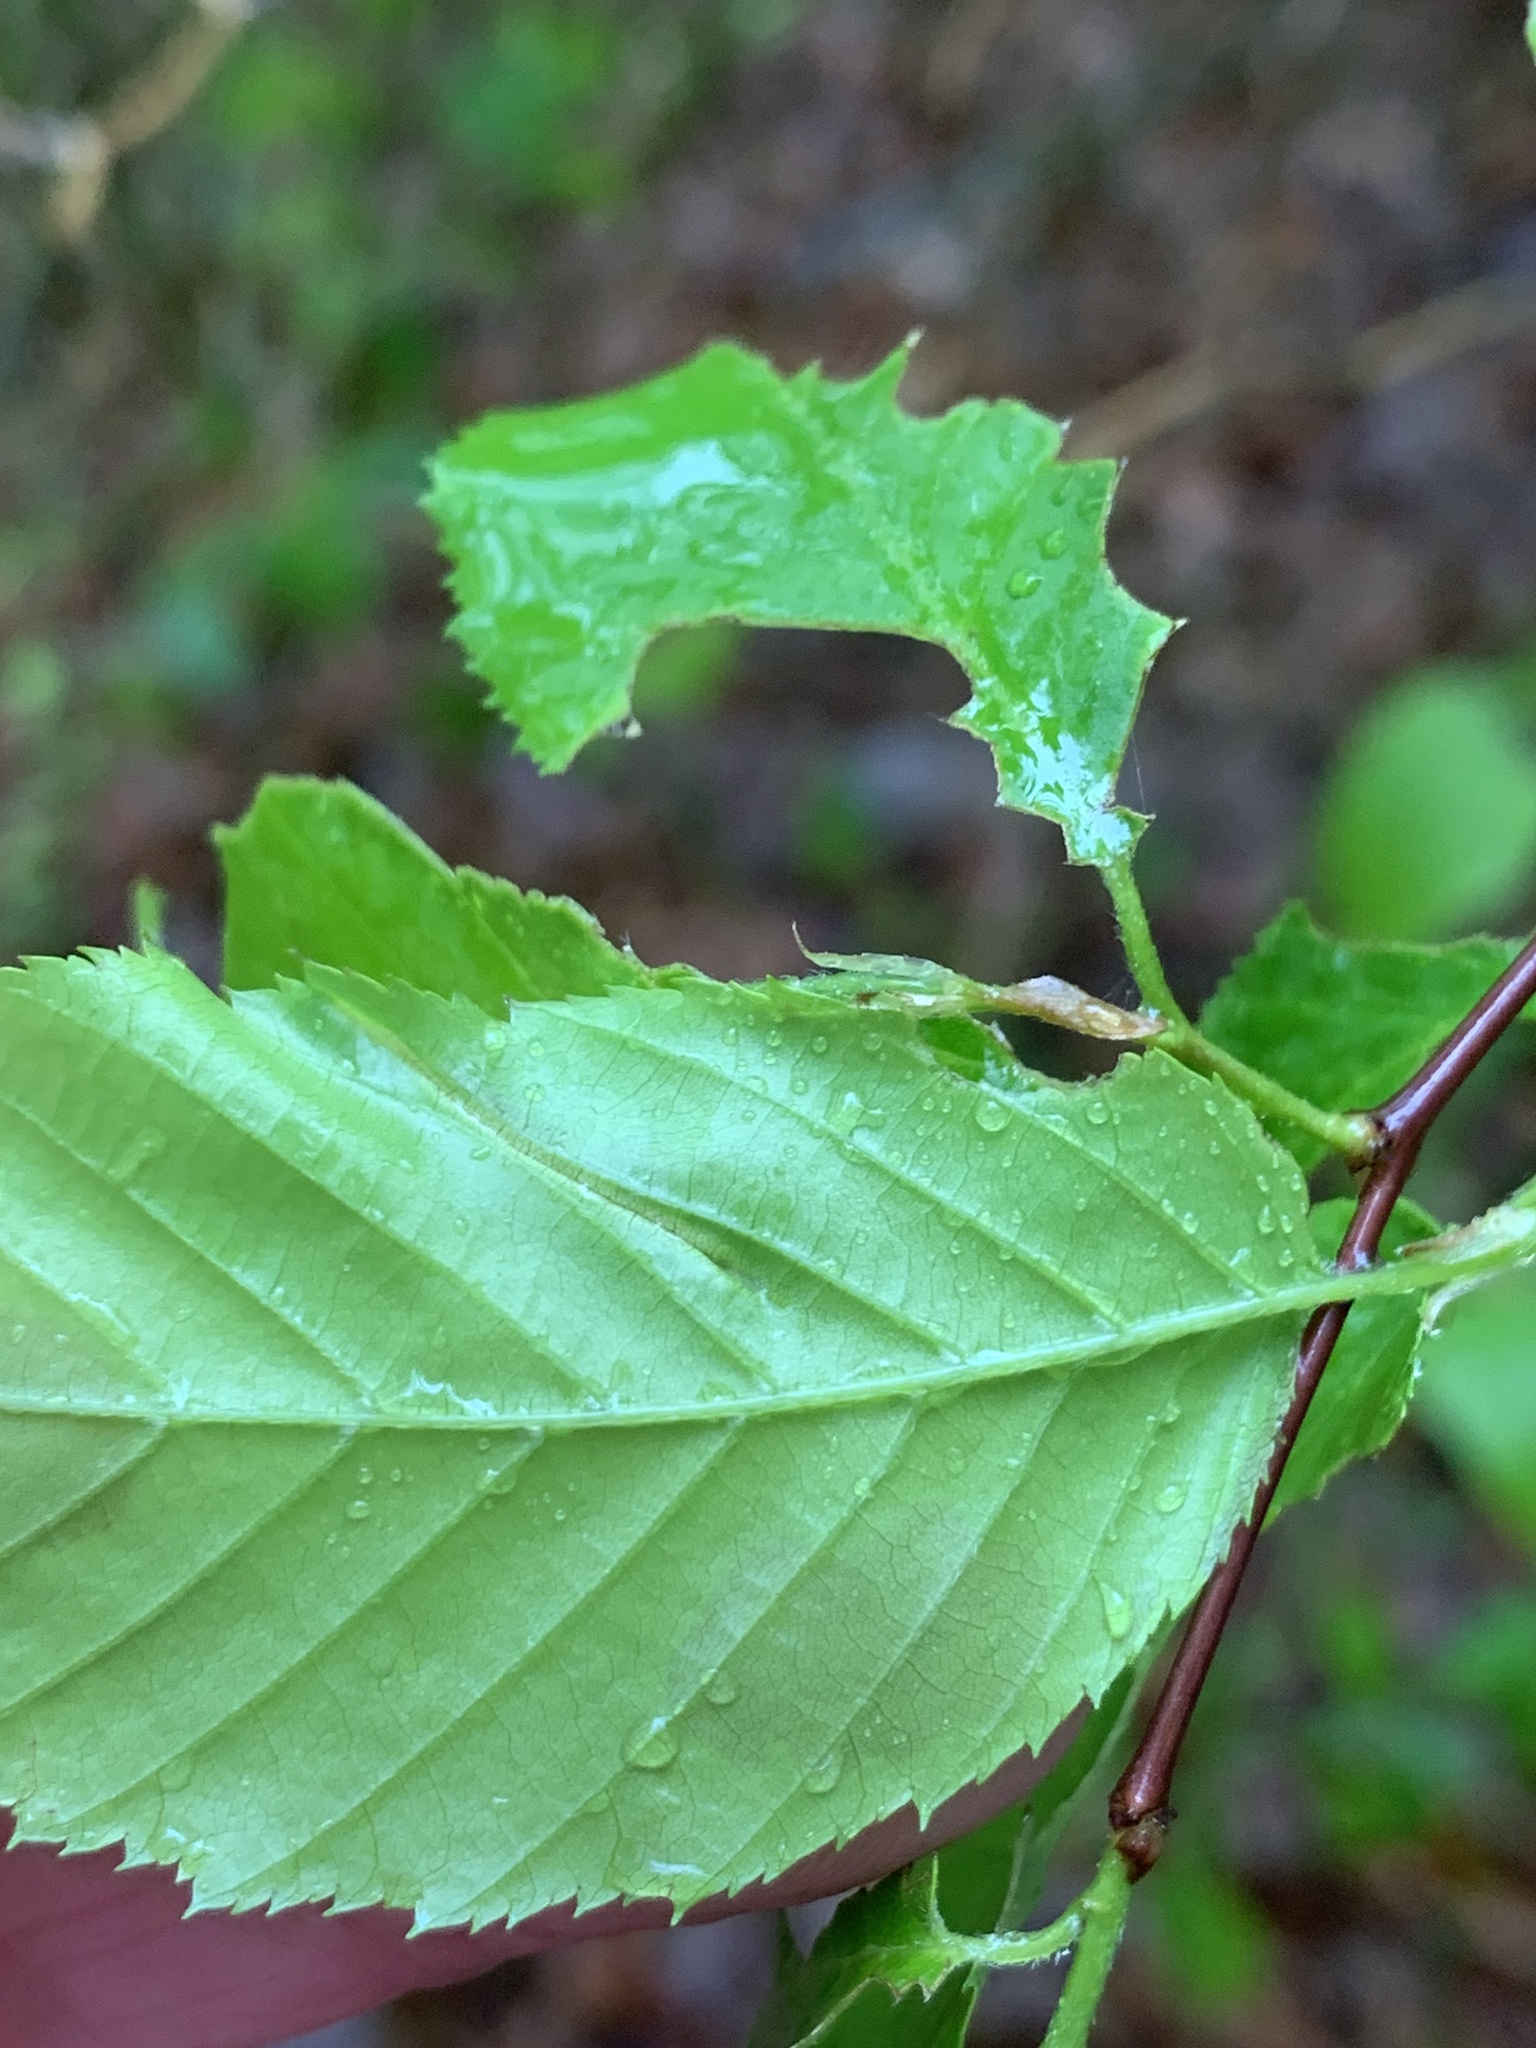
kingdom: Plantae
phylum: Tracheophyta
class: Magnoliopsida
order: Fagales
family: Betulaceae
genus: Carpinus
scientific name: Carpinus caroliniana
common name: American hornbeam
